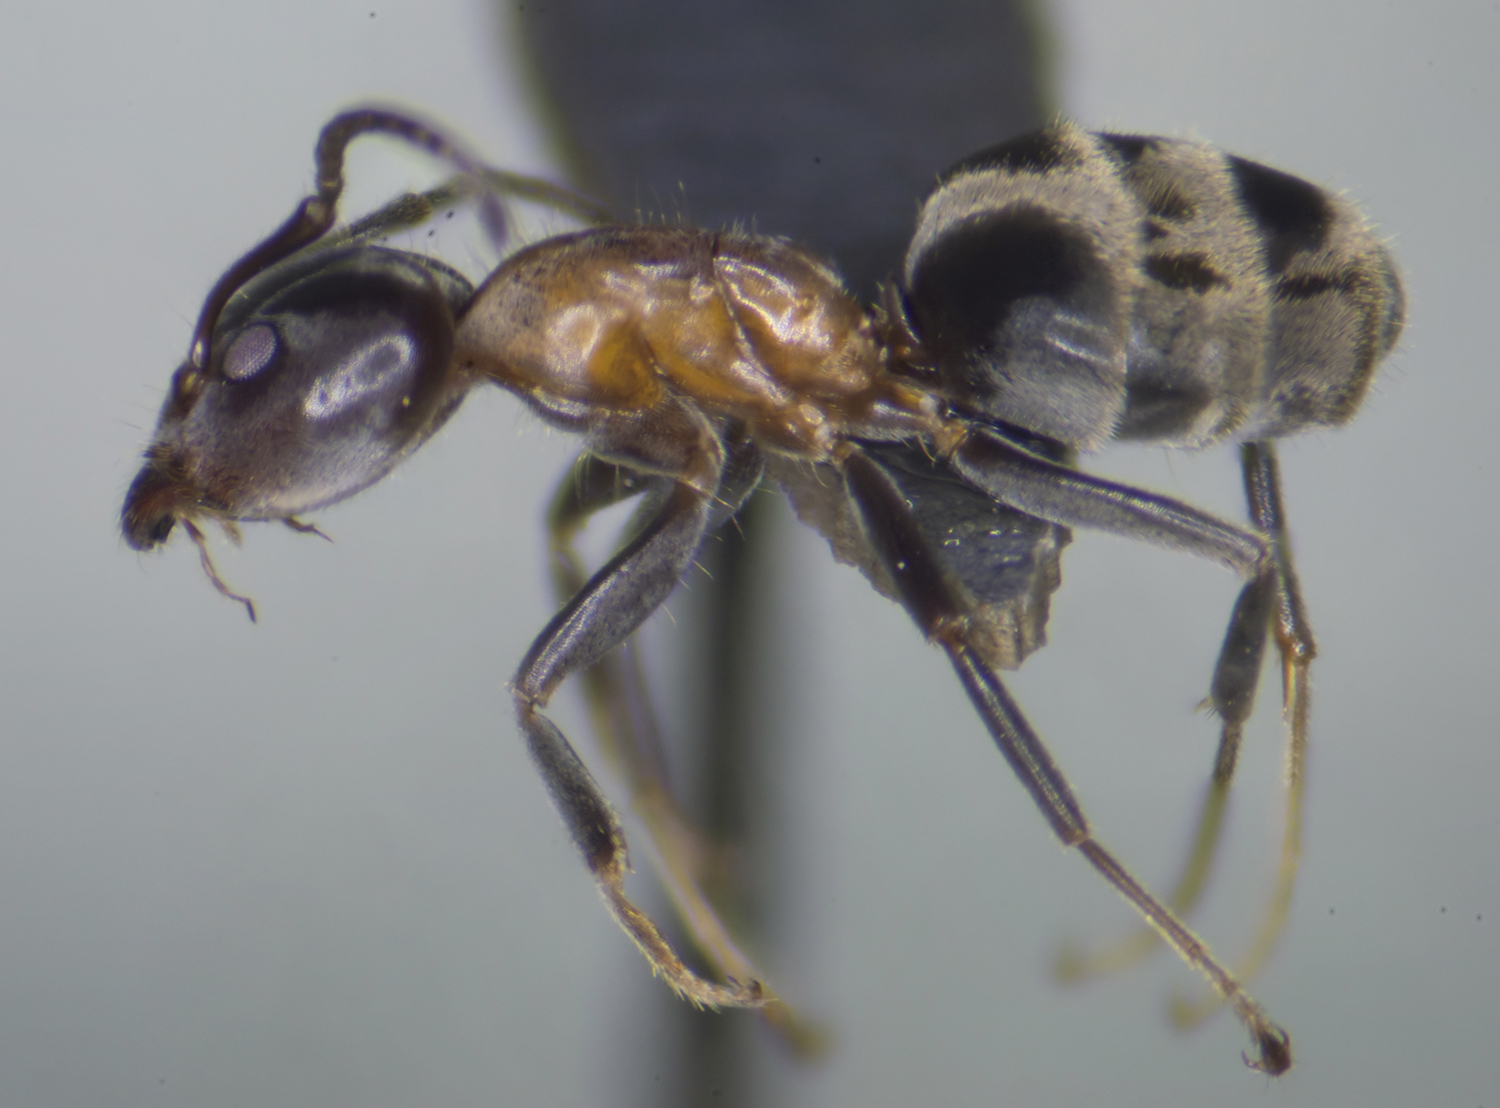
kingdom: Animalia
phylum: Arthropoda
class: Insecta
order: Hymenoptera
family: Formicidae
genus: Liometopum
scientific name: Liometopum microcephalum
